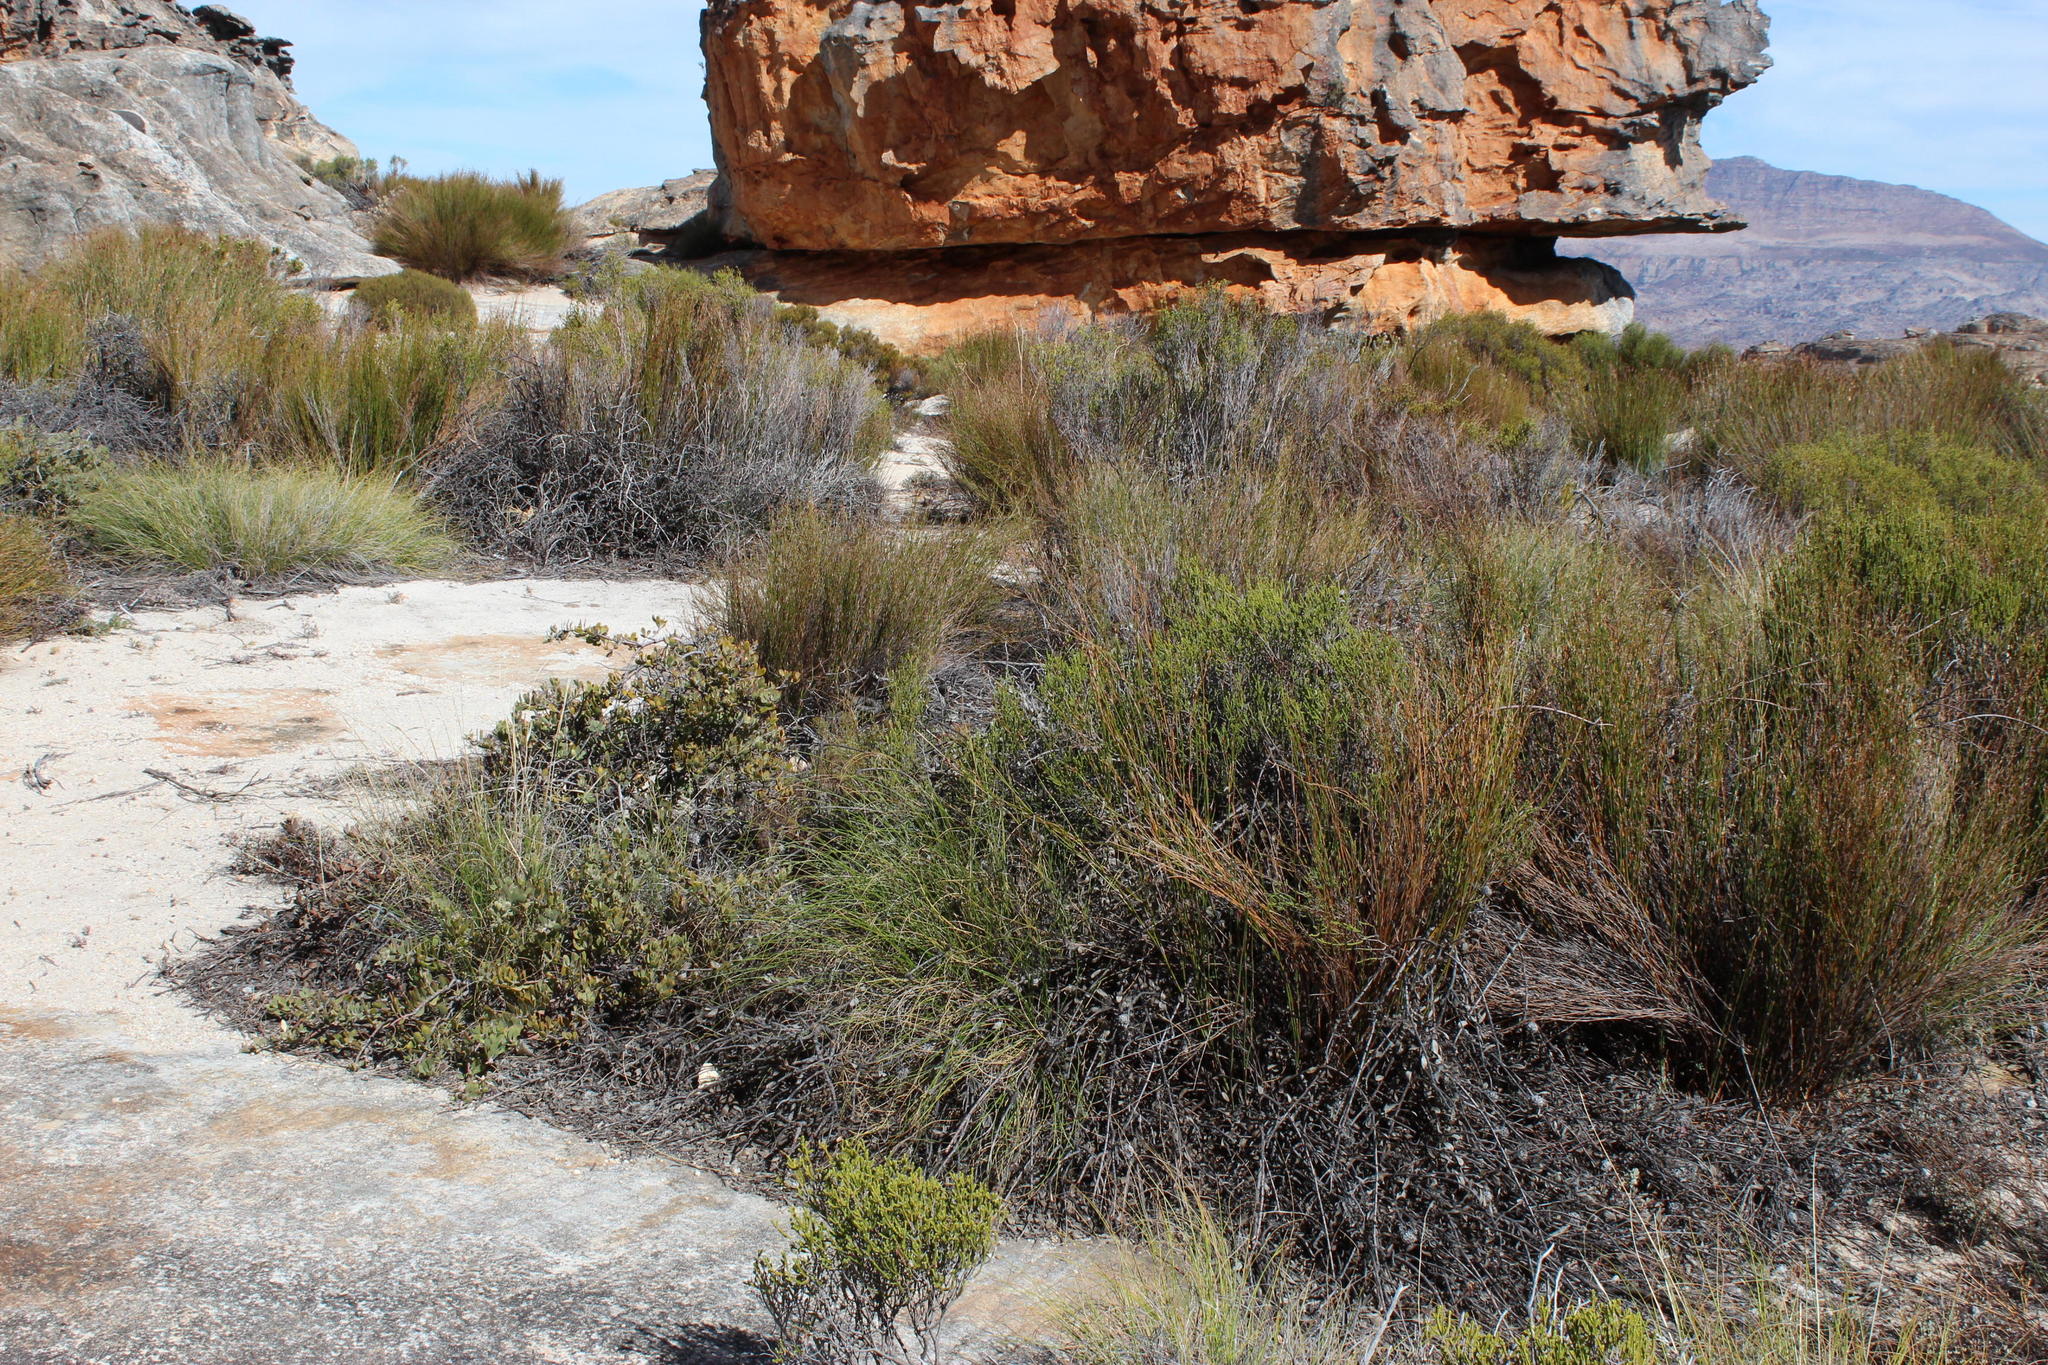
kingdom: Plantae
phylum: Tracheophyta
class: Magnoliopsida
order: Proteales
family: Proteaceae
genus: Leucospermum
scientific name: Leucospermum spathulatum
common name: Cederberg pincushion
